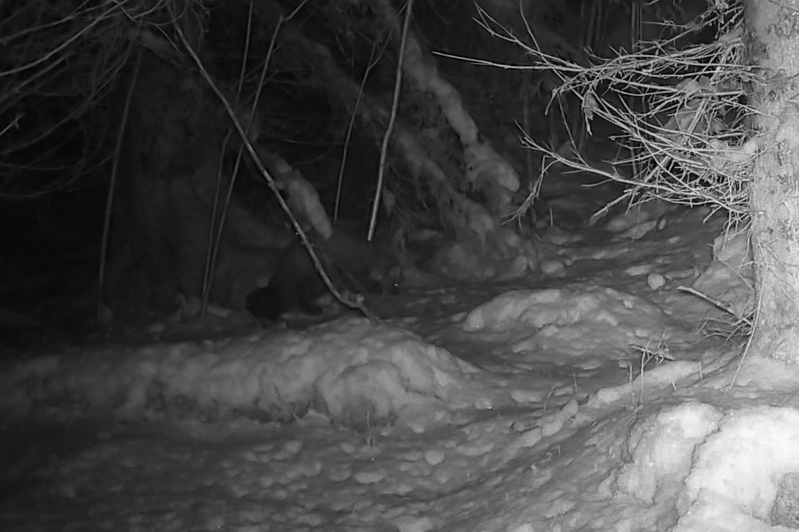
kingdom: Animalia
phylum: Chordata
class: Mammalia
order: Carnivora
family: Mustelidae
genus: Martes
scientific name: Martes martes
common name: European pine marten
